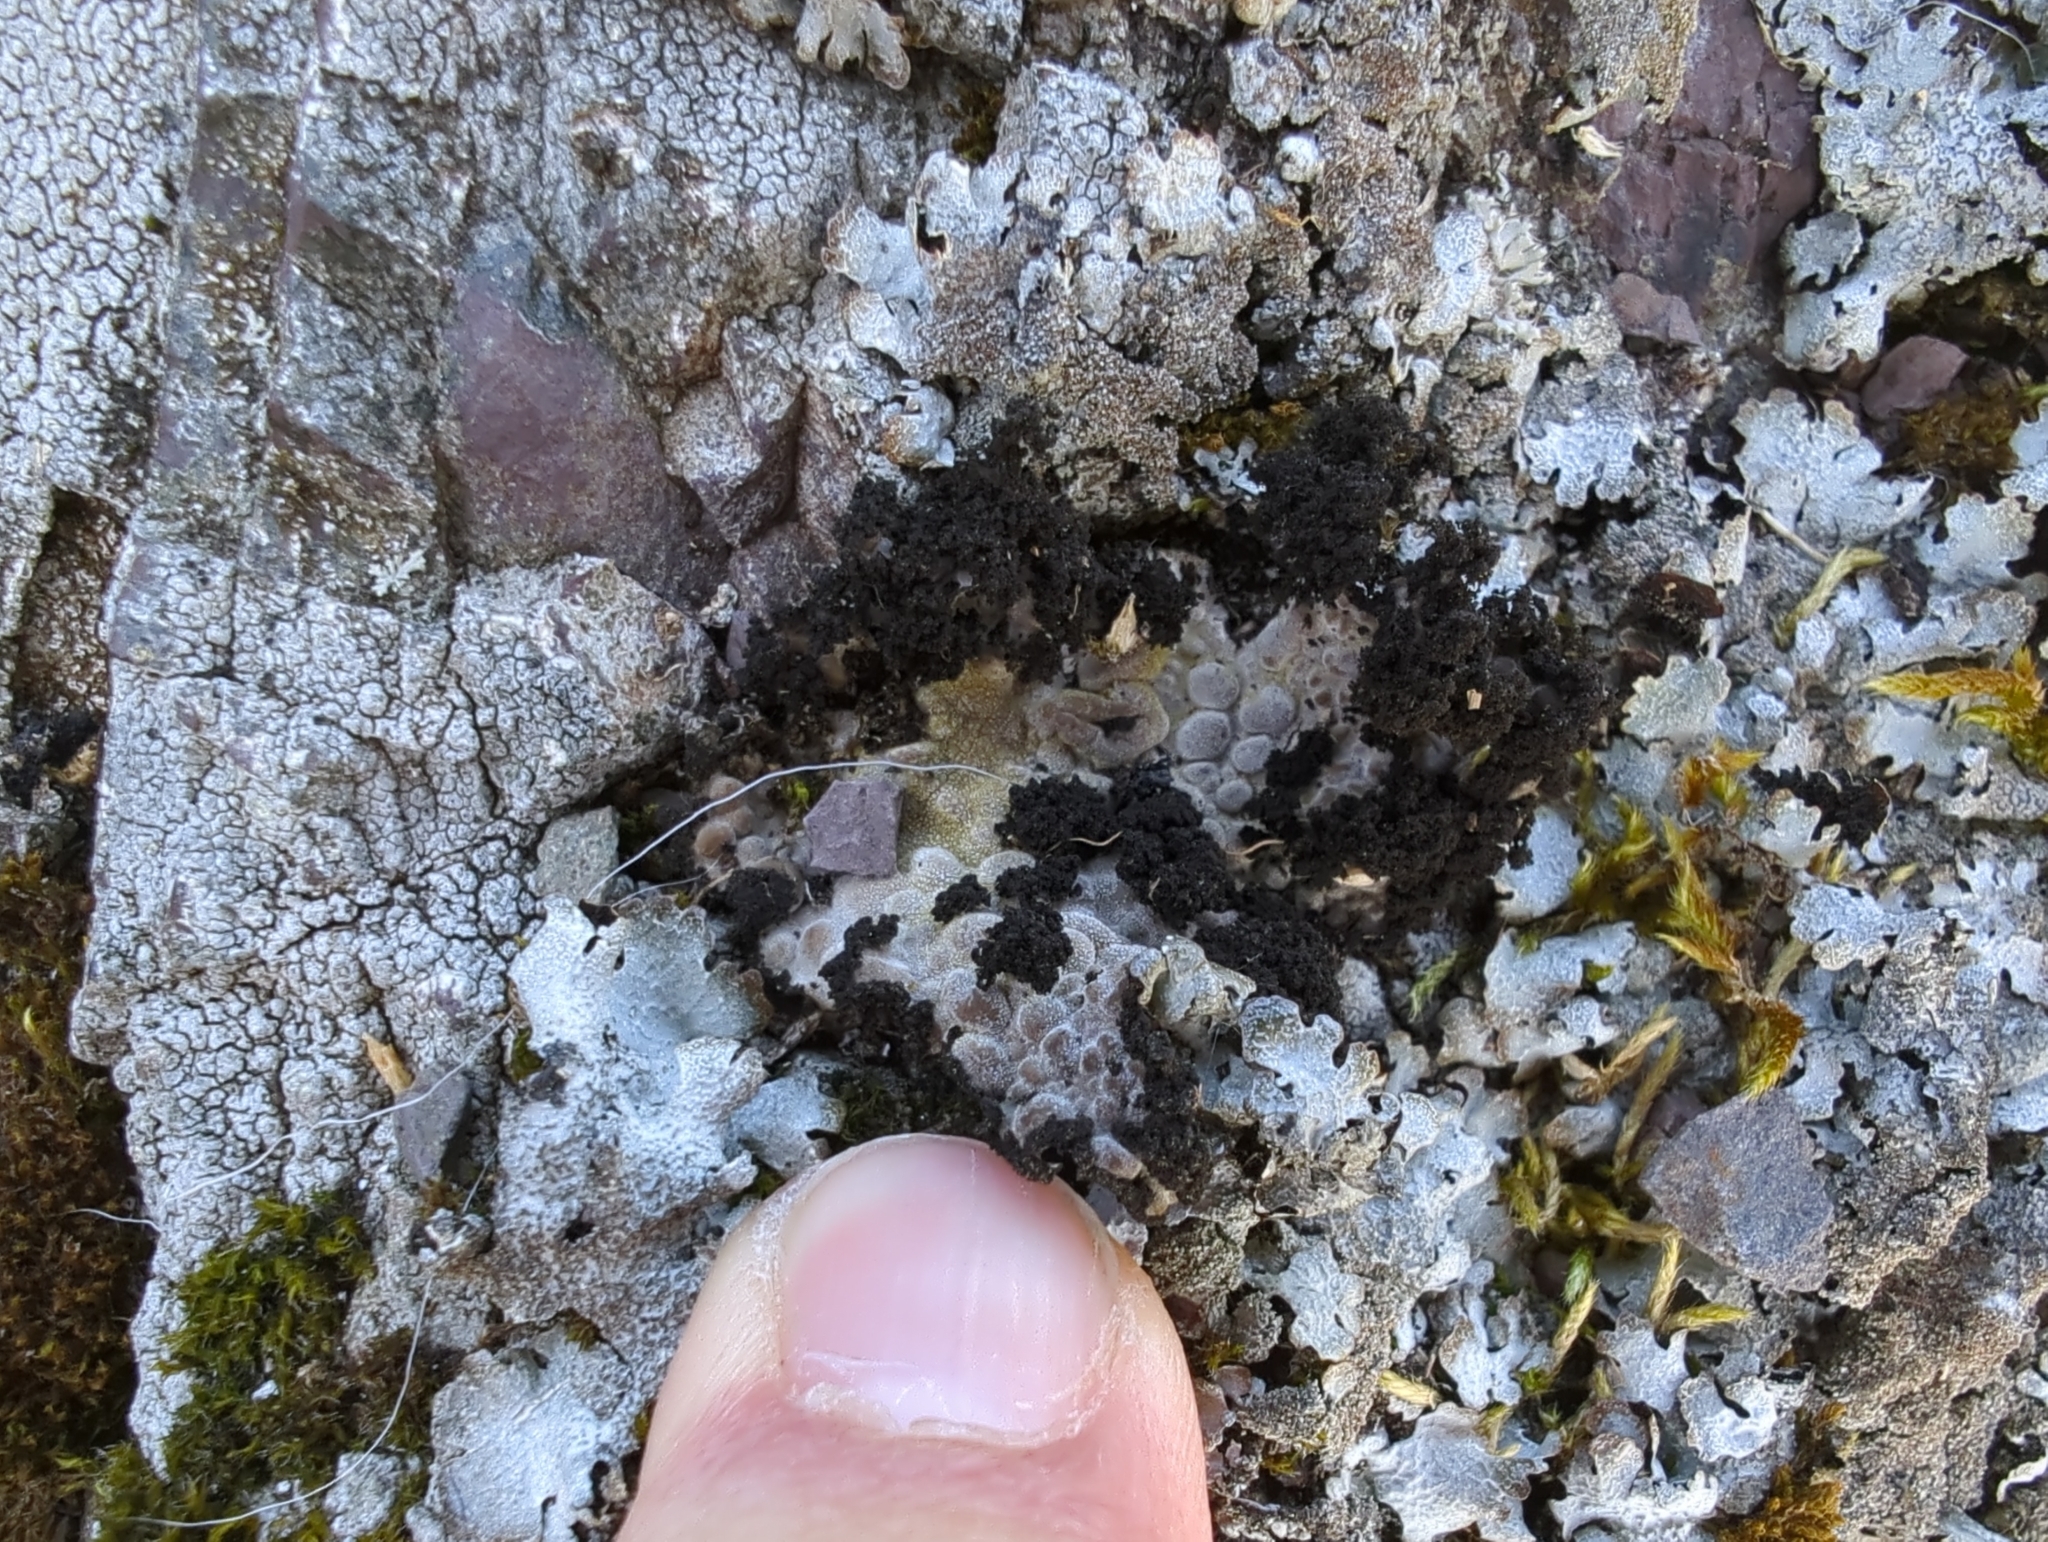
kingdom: Fungi
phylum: Ascomycota
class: Lecanoromycetes
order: Umbilicariales
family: Umbilicariaceae
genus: Lasallia
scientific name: Lasallia pustulata
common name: Blistered toadskin lichen
